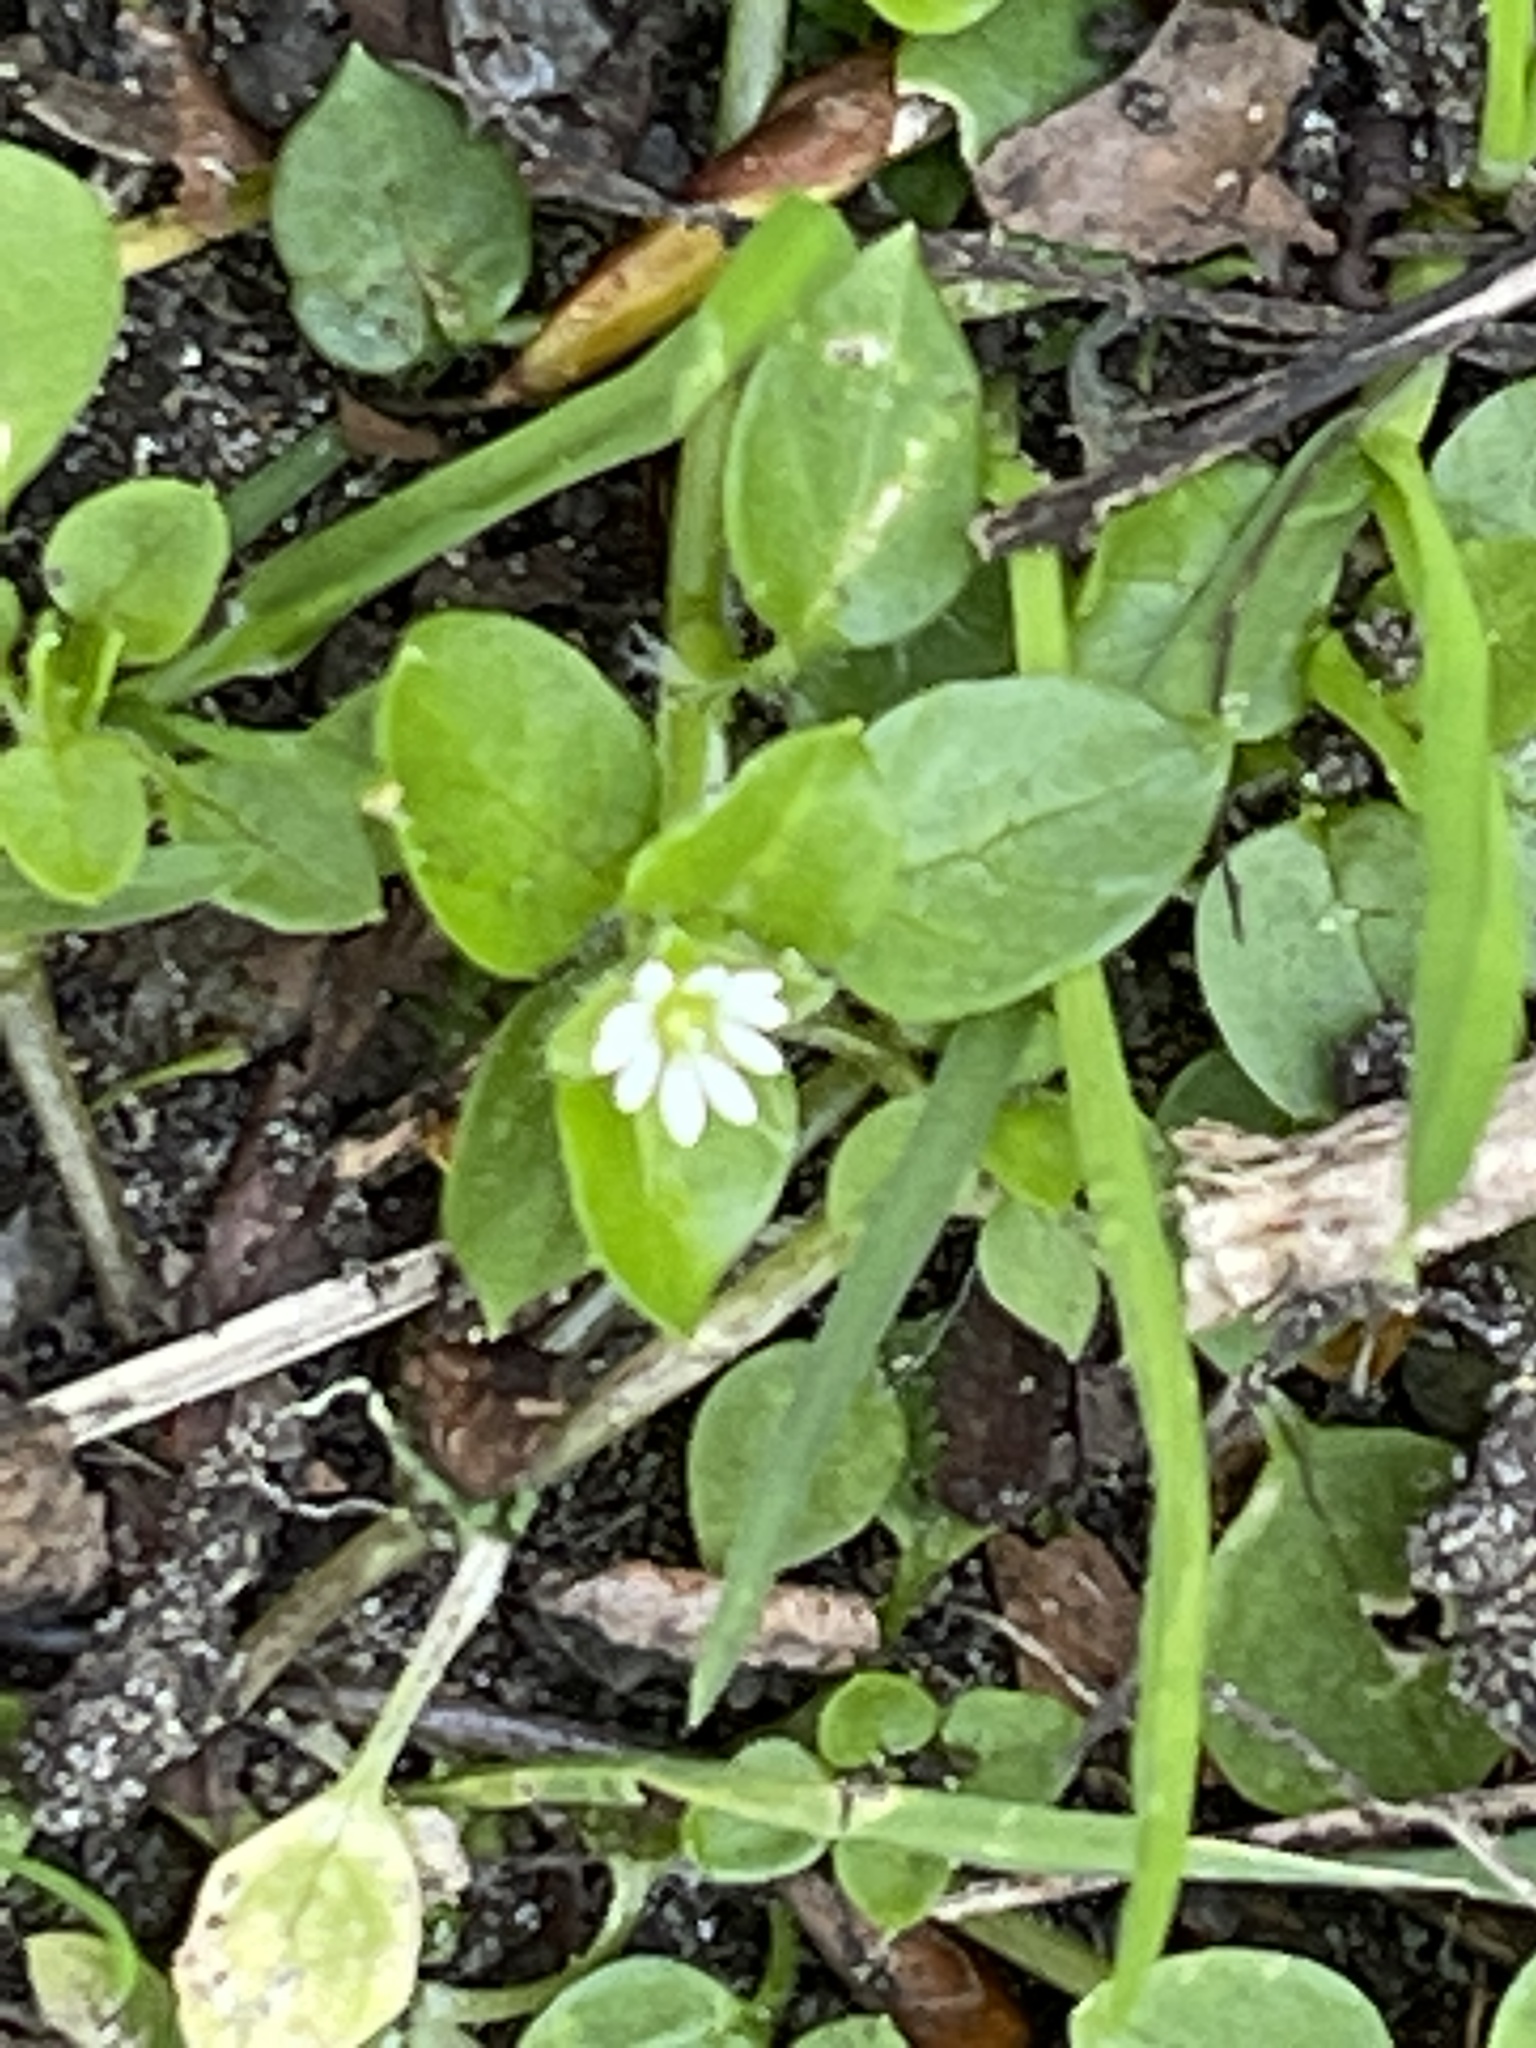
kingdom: Plantae
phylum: Tracheophyta
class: Magnoliopsida
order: Caryophyllales
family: Caryophyllaceae
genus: Stellaria
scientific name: Stellaria media
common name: Common chickweed
